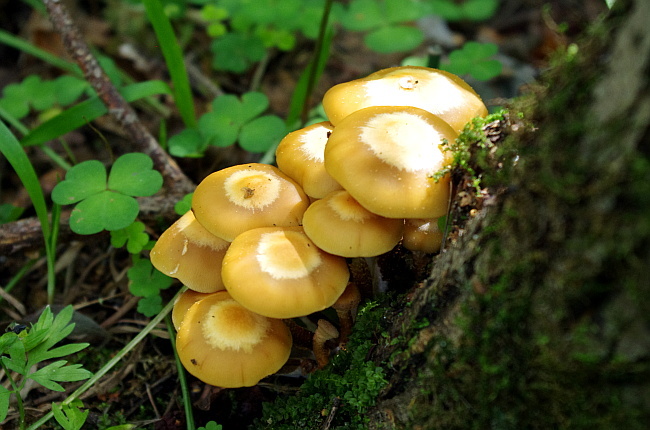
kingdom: Fungi
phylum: Basidiomycota
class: Agaricomycetes
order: Agaricales
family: Strophariaceae
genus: Kuehneromyces
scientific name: Kuehneromyces mutabilis
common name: Sheathed woodtuft
